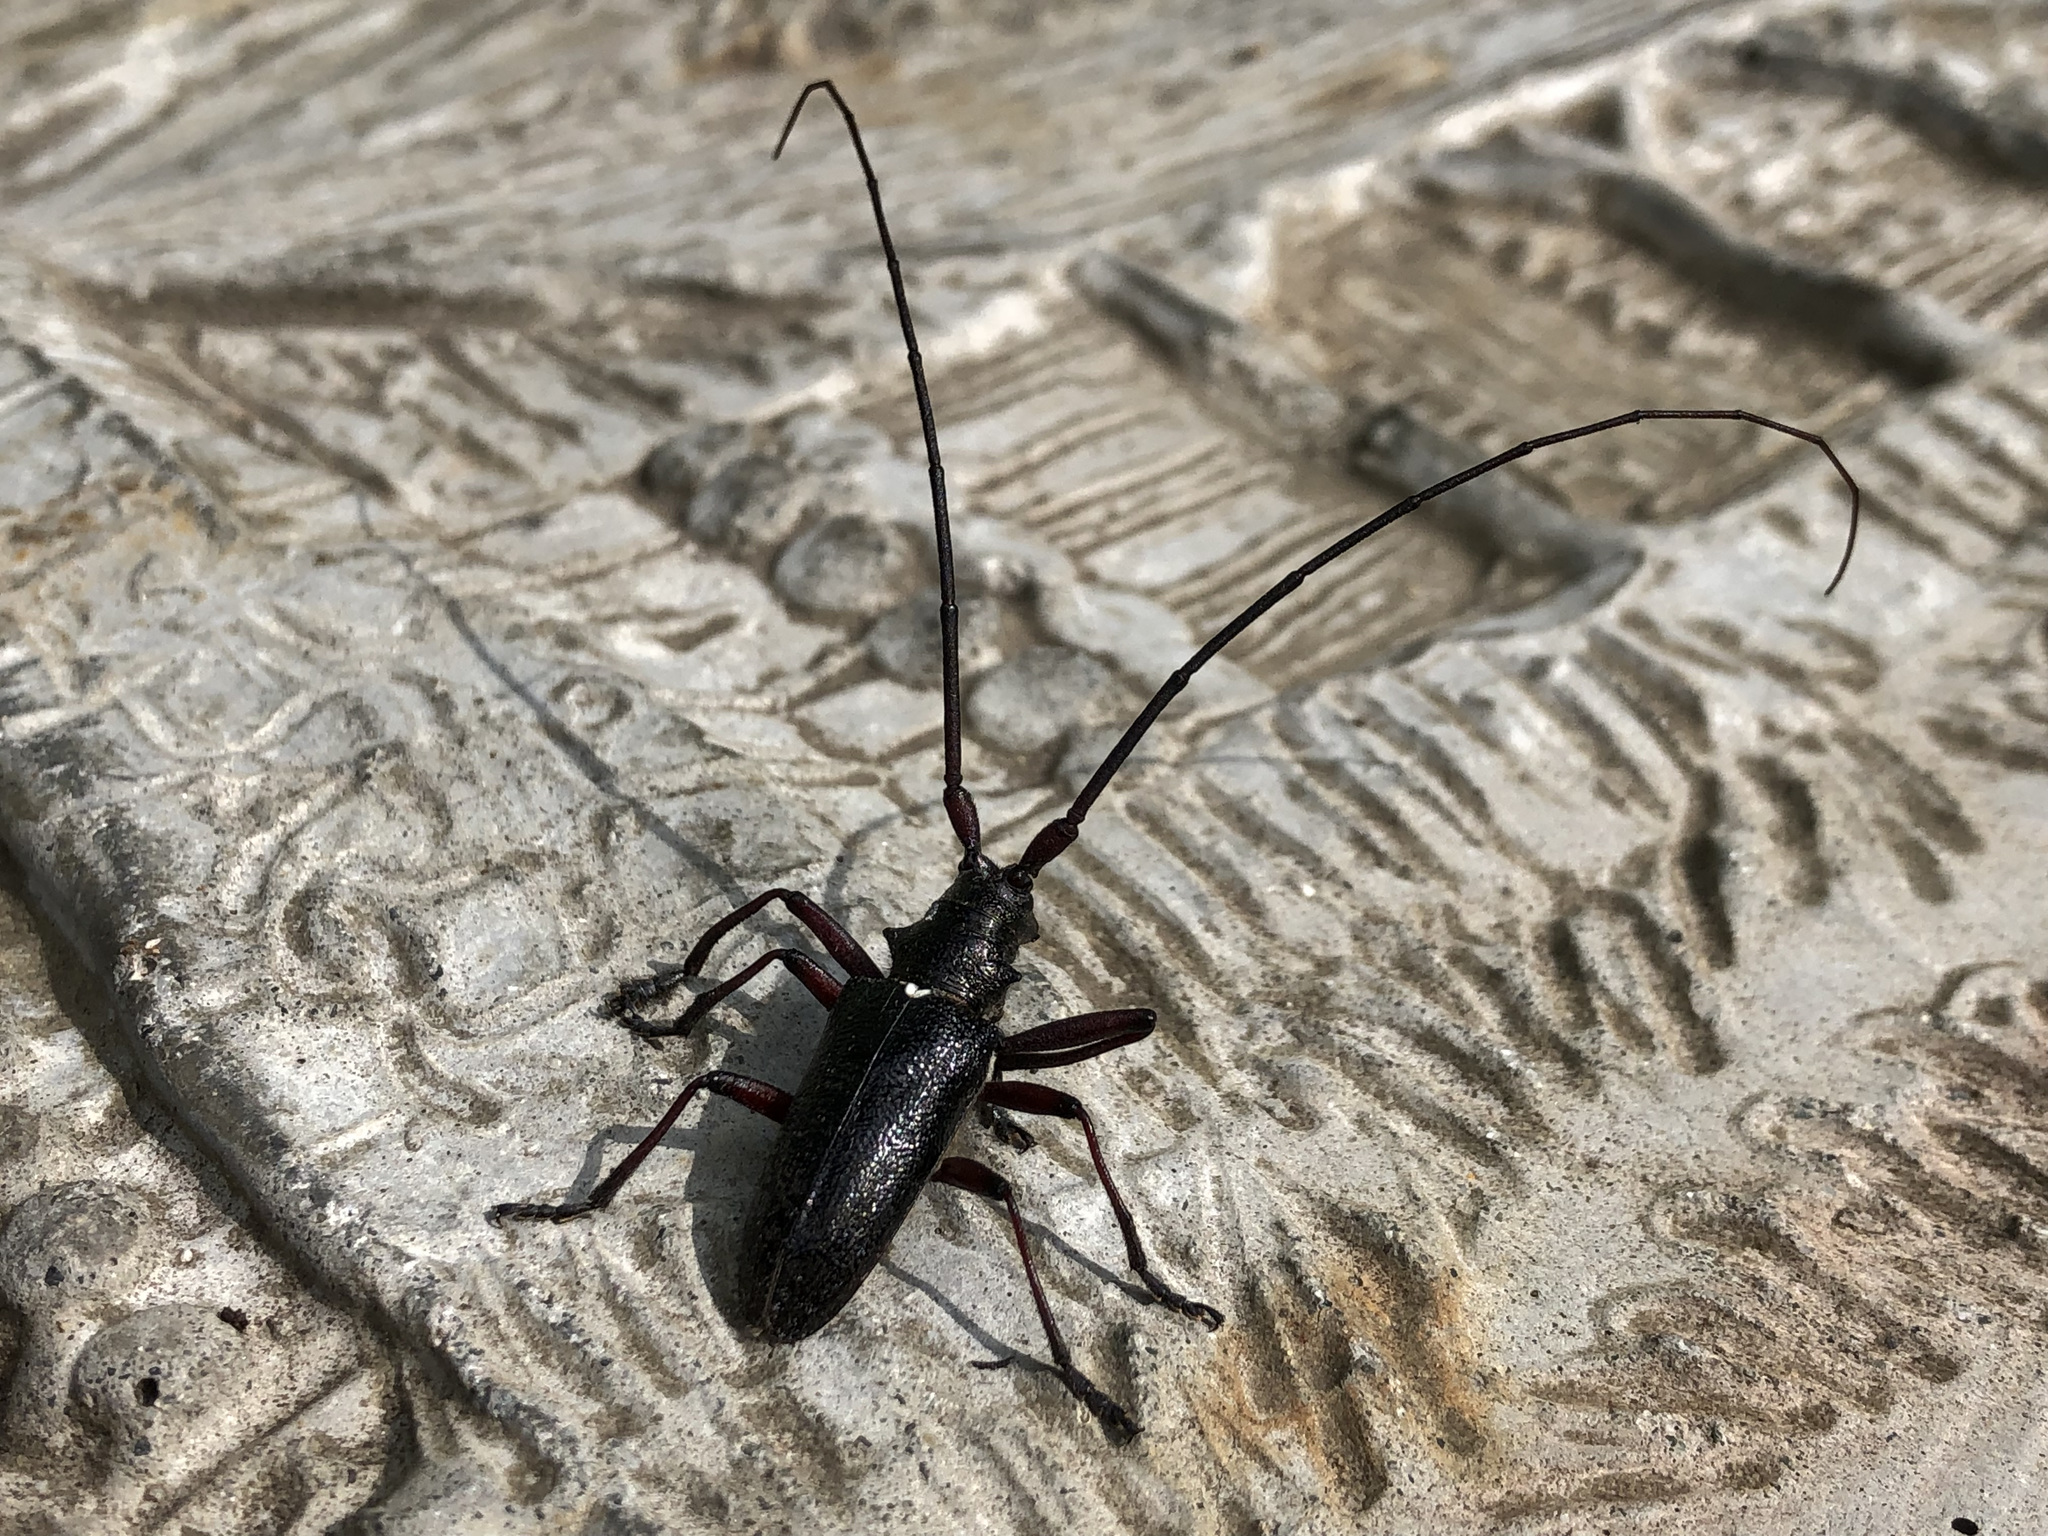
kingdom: Animalia
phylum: Arthropoda
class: Insecta
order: Coleoptera
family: Cerambycidae
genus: Monochamus
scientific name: Monochamus scutellatus
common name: White-spotted sawyer beetle
